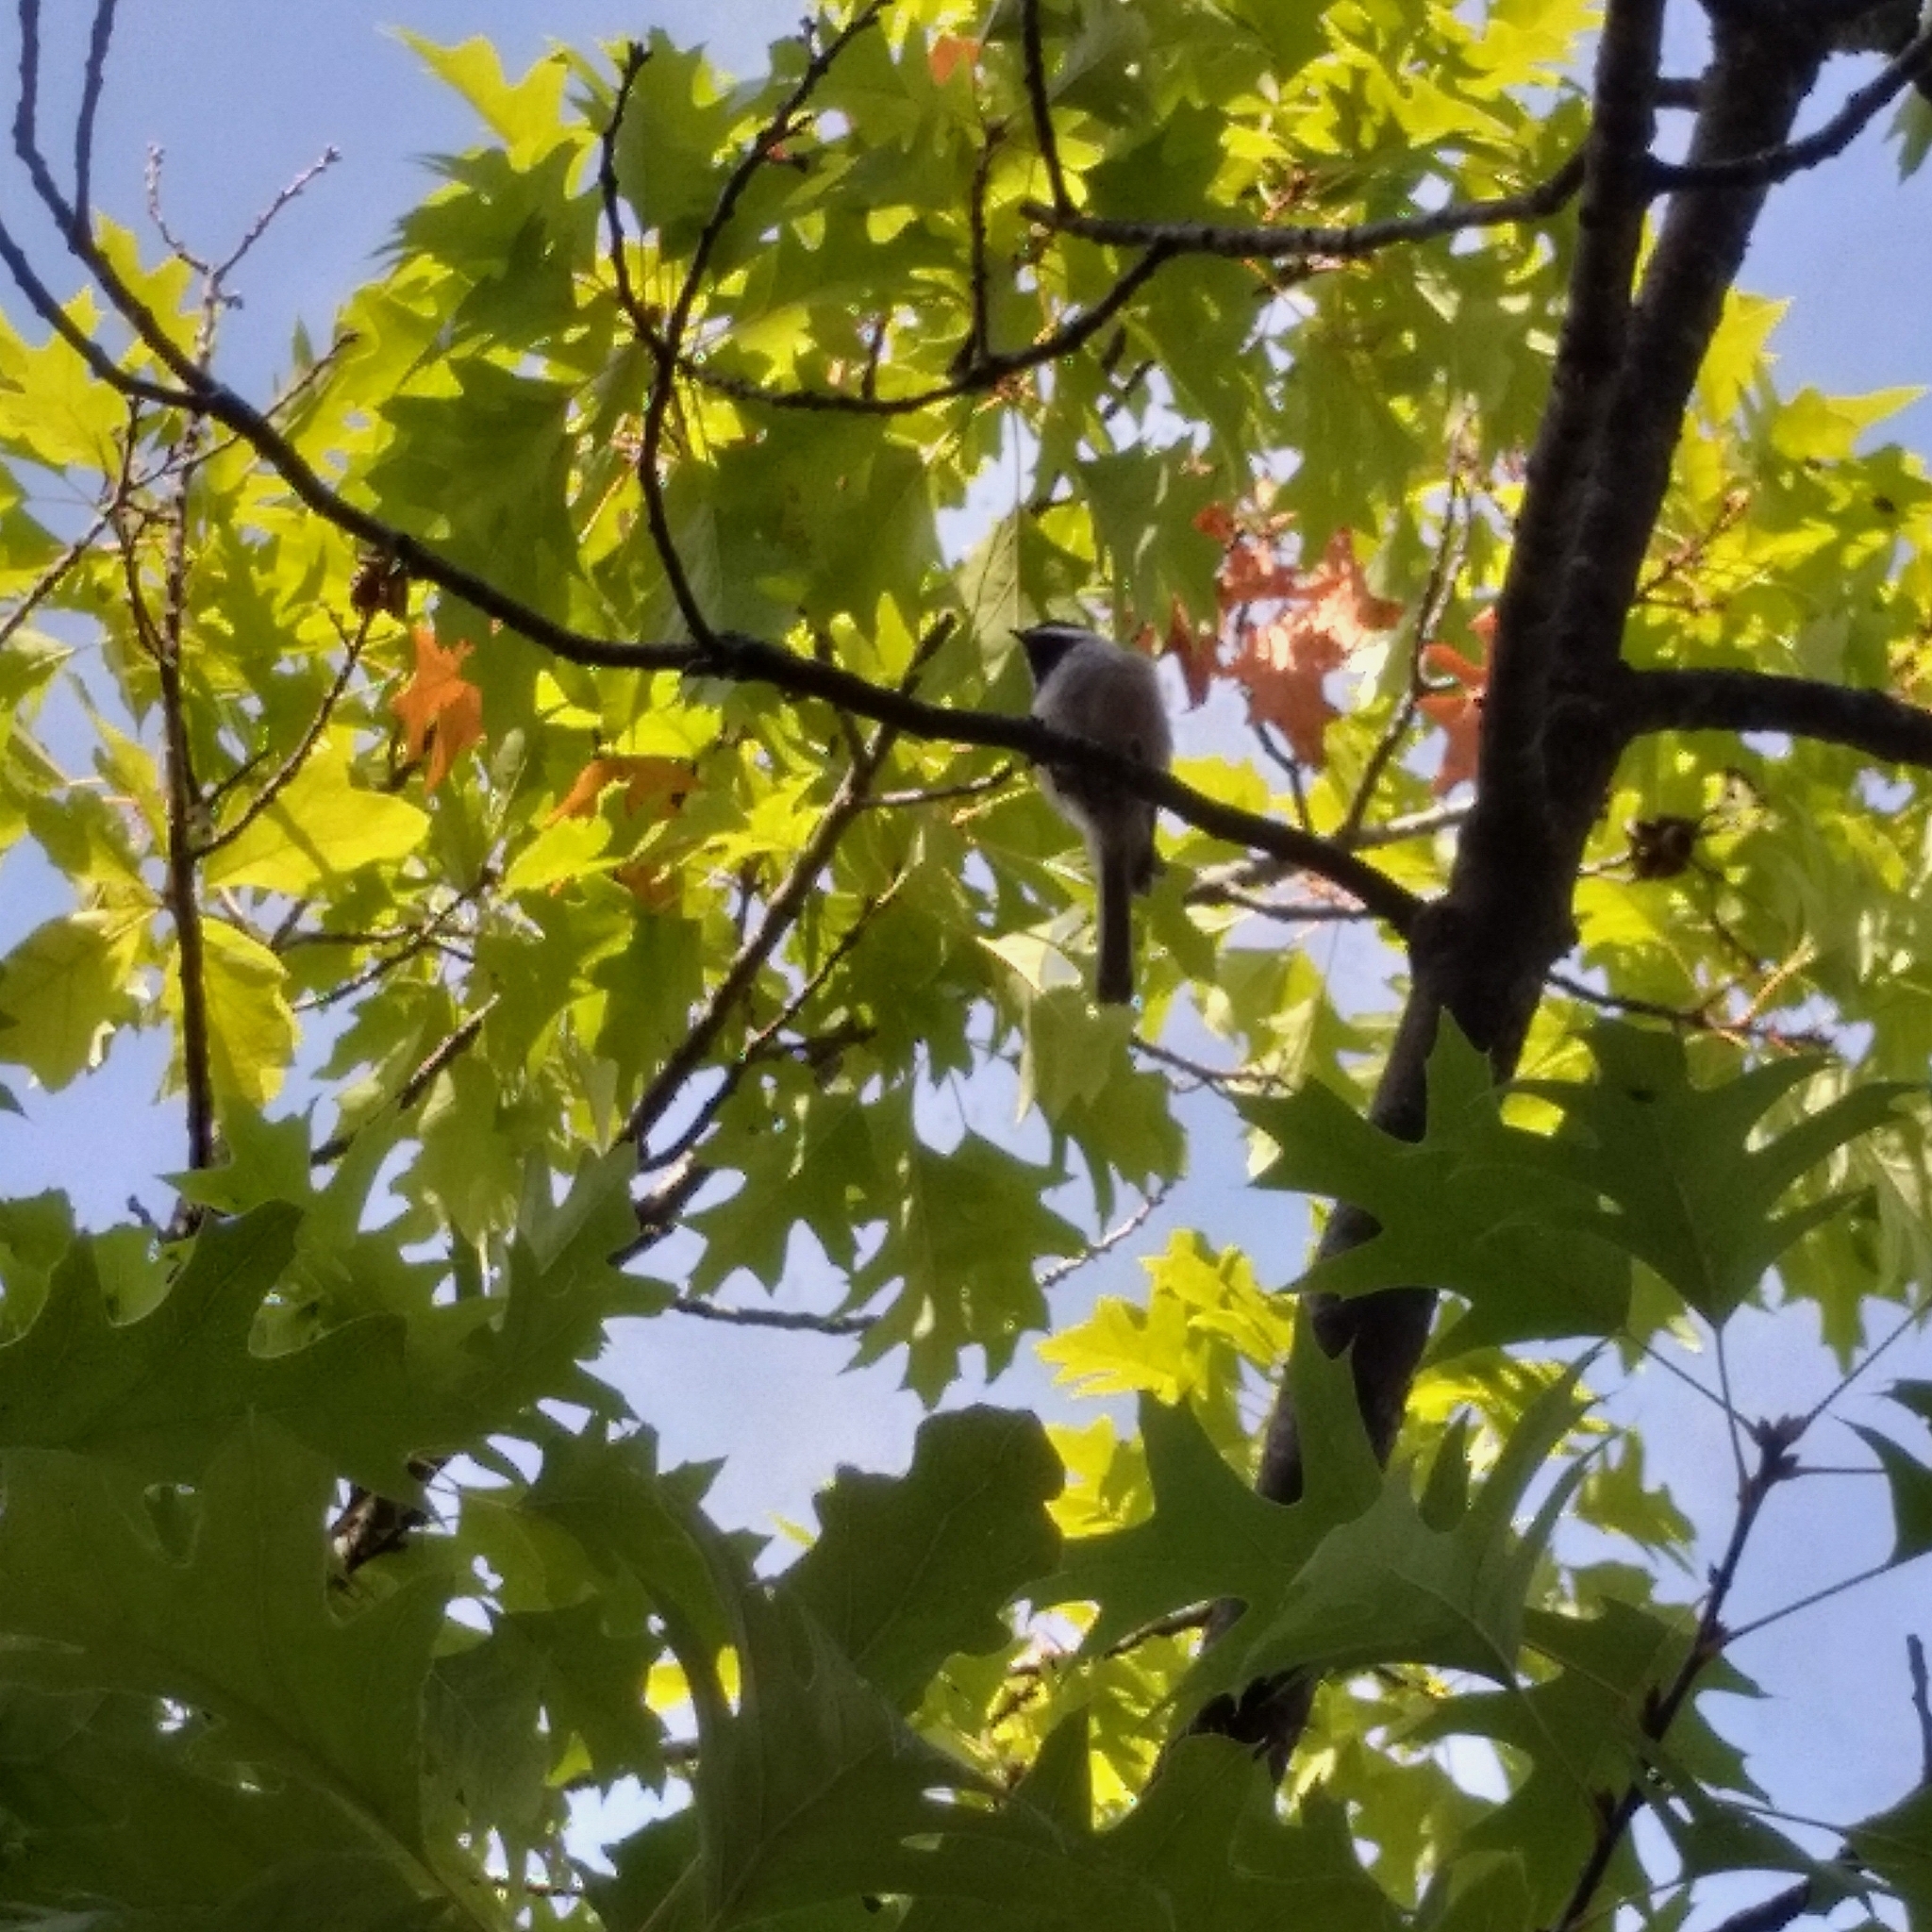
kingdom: Animalia
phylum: Chordata
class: Aves
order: Passeriformes
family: Paridae
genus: Poecile
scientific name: Poecile atricapillus
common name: Black-capped chickadee
